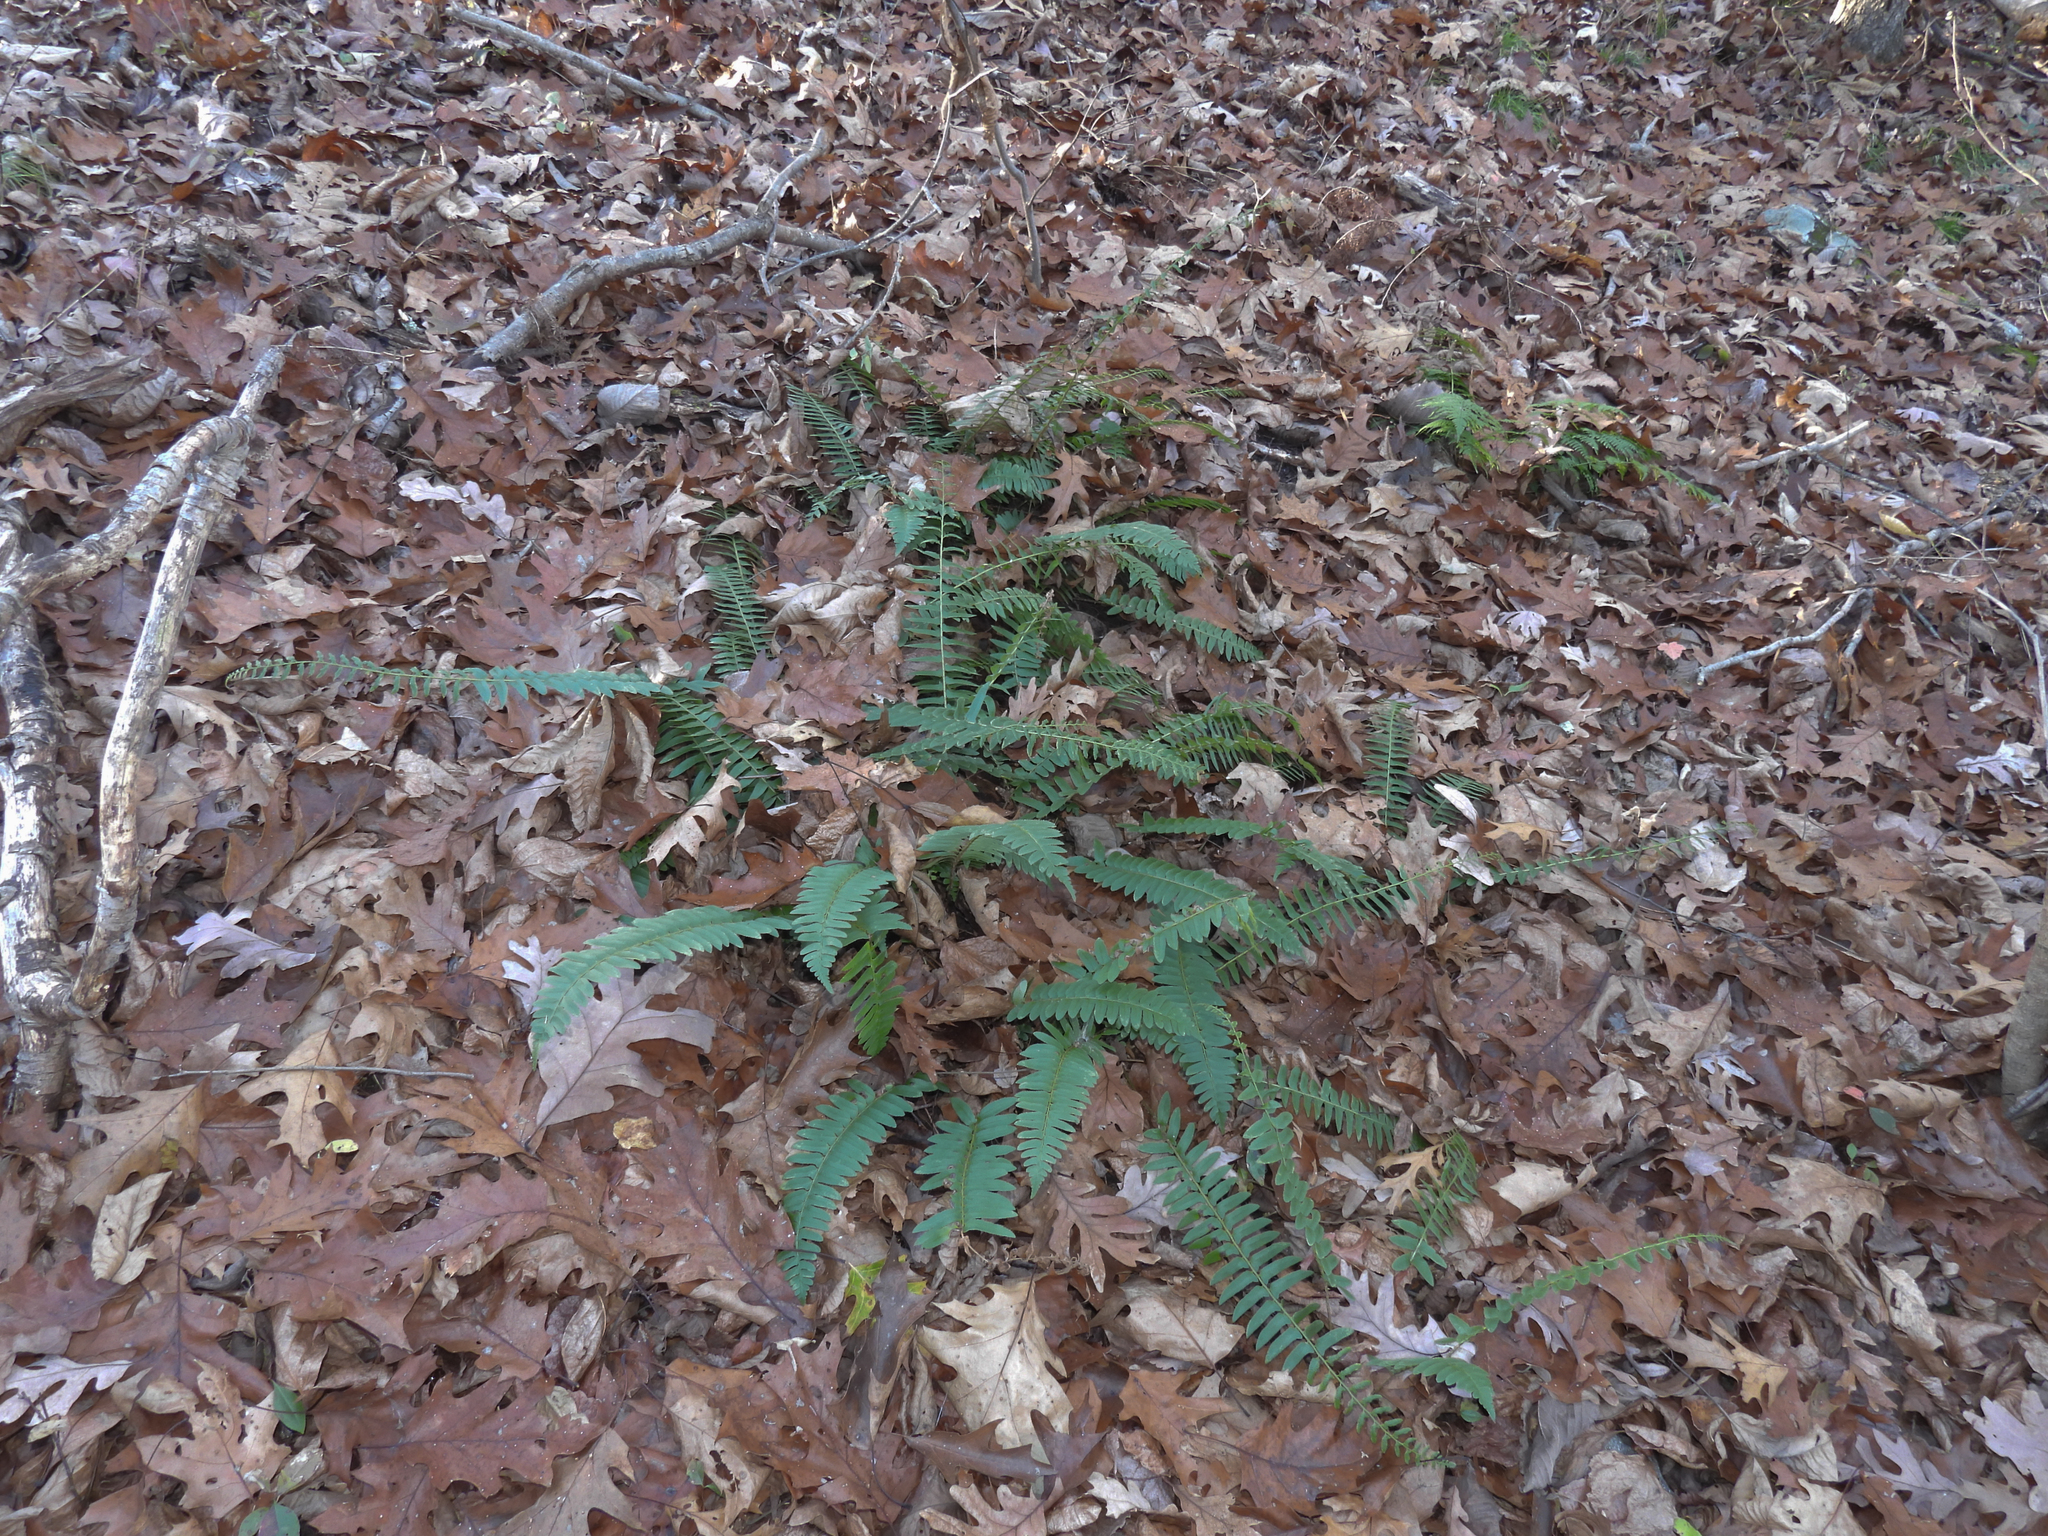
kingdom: Plantae
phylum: Tracheophyta
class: Polypodiopsida
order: Polypodiales
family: Dryopteridaceae
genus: Polystichum
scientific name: Polystichum acrostichoides
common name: Christmas fern
